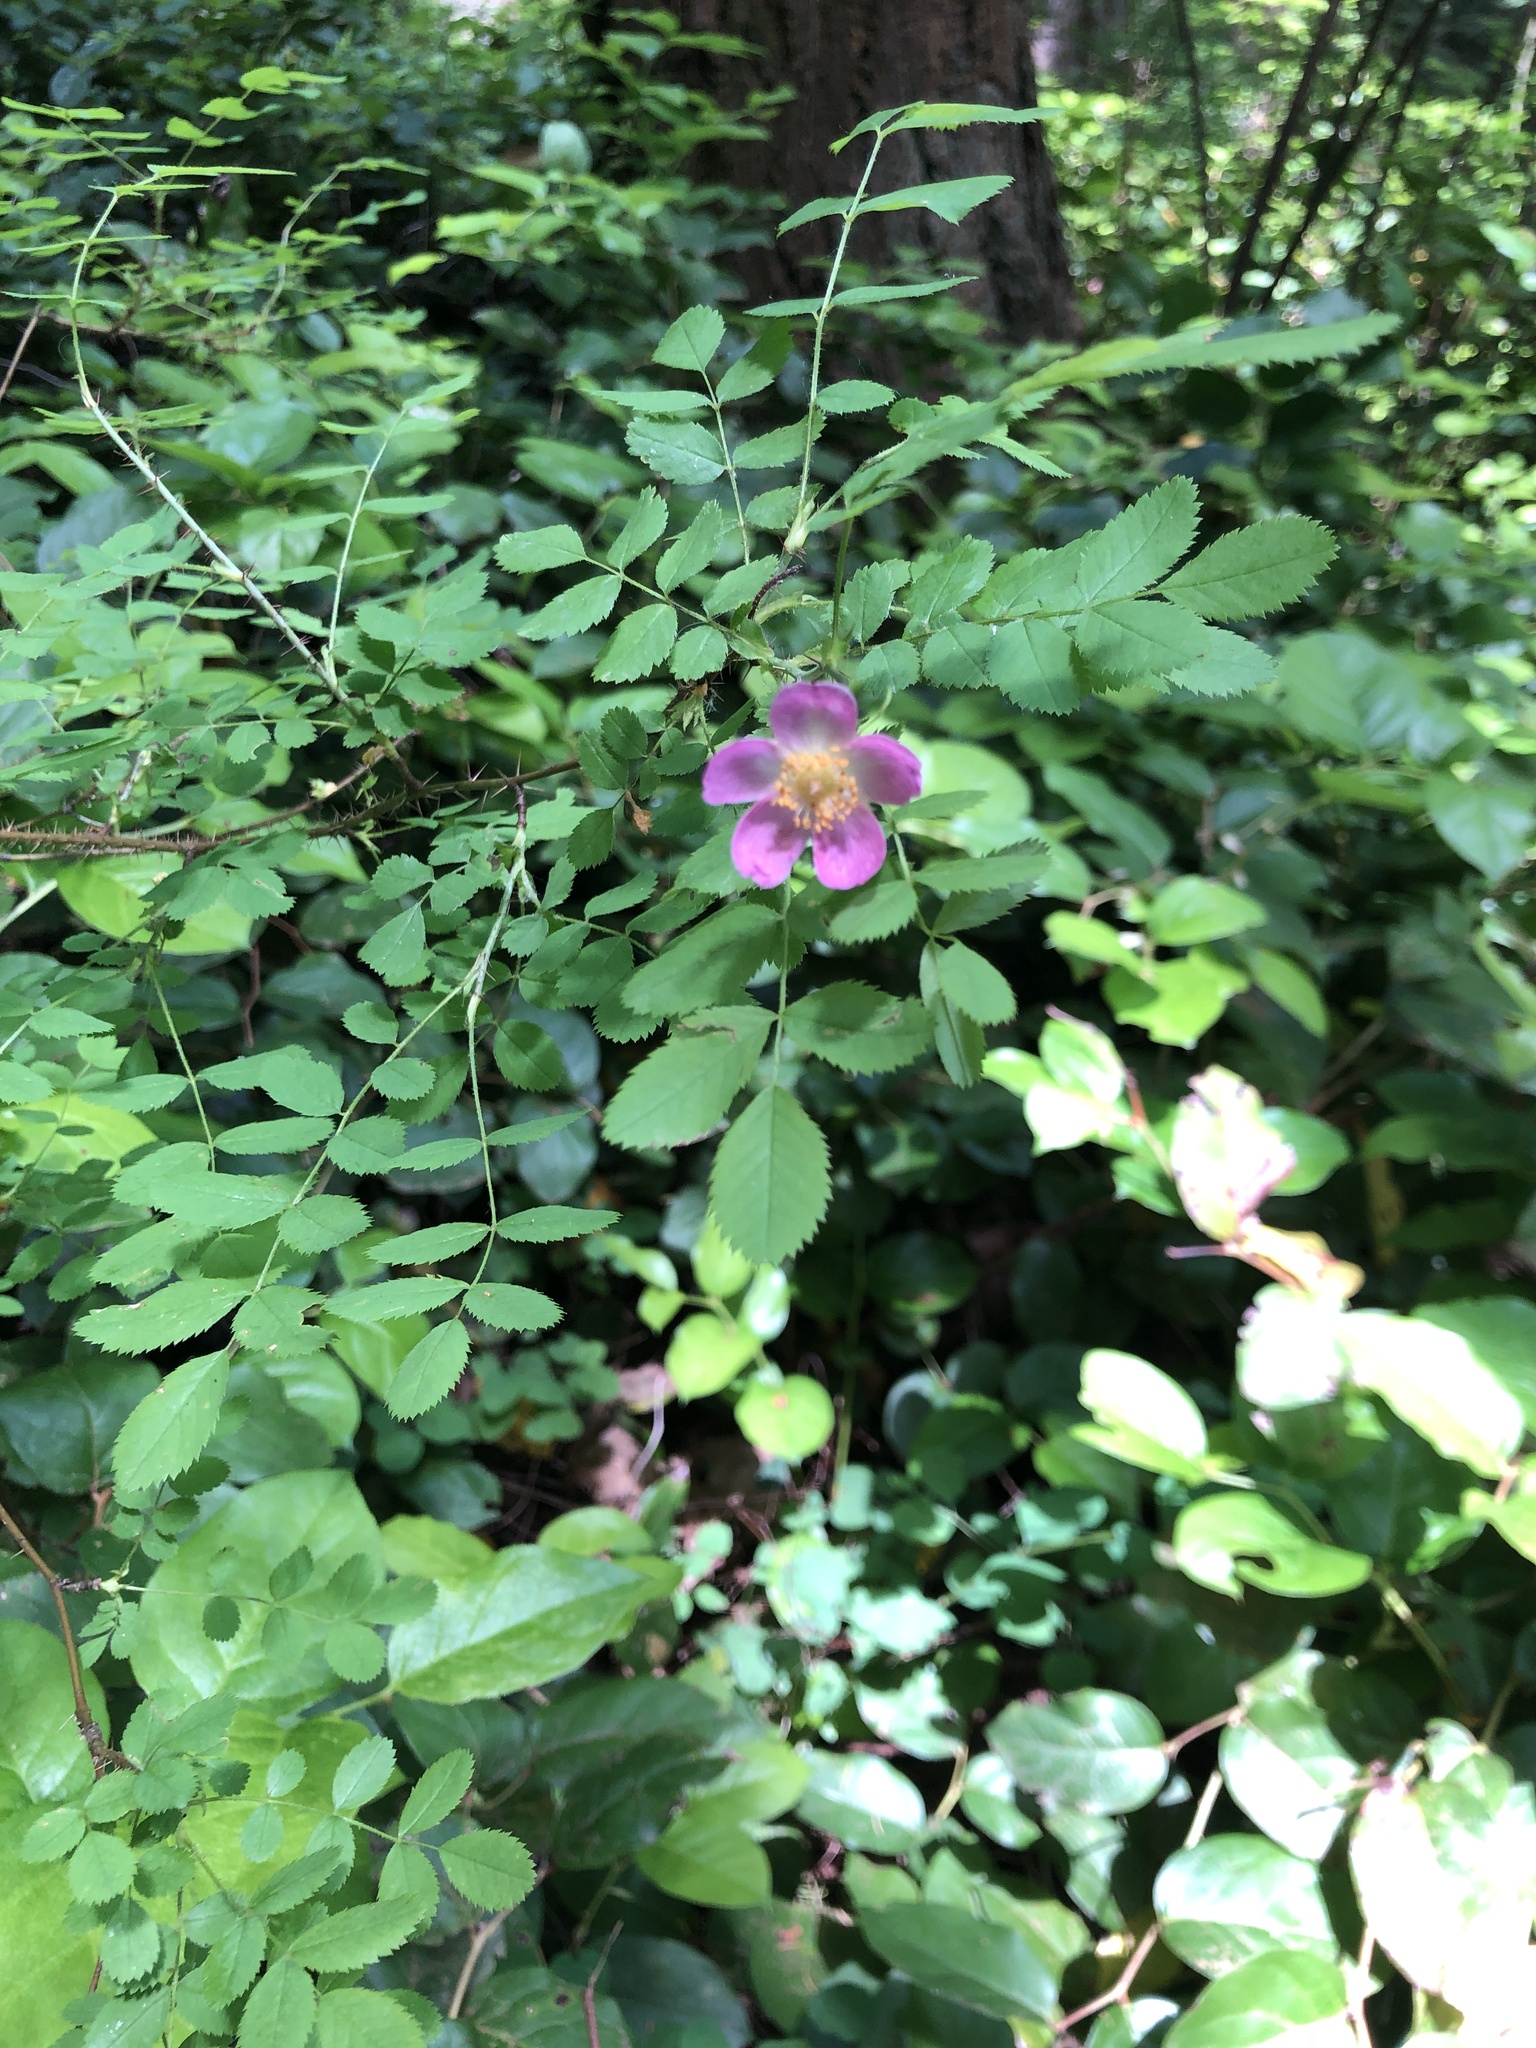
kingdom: Plantae
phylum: Tracheophyta
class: Magnoliopsida
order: Rosales
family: Rosaceae
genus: Rosa
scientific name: Rosa gymnocarpa
